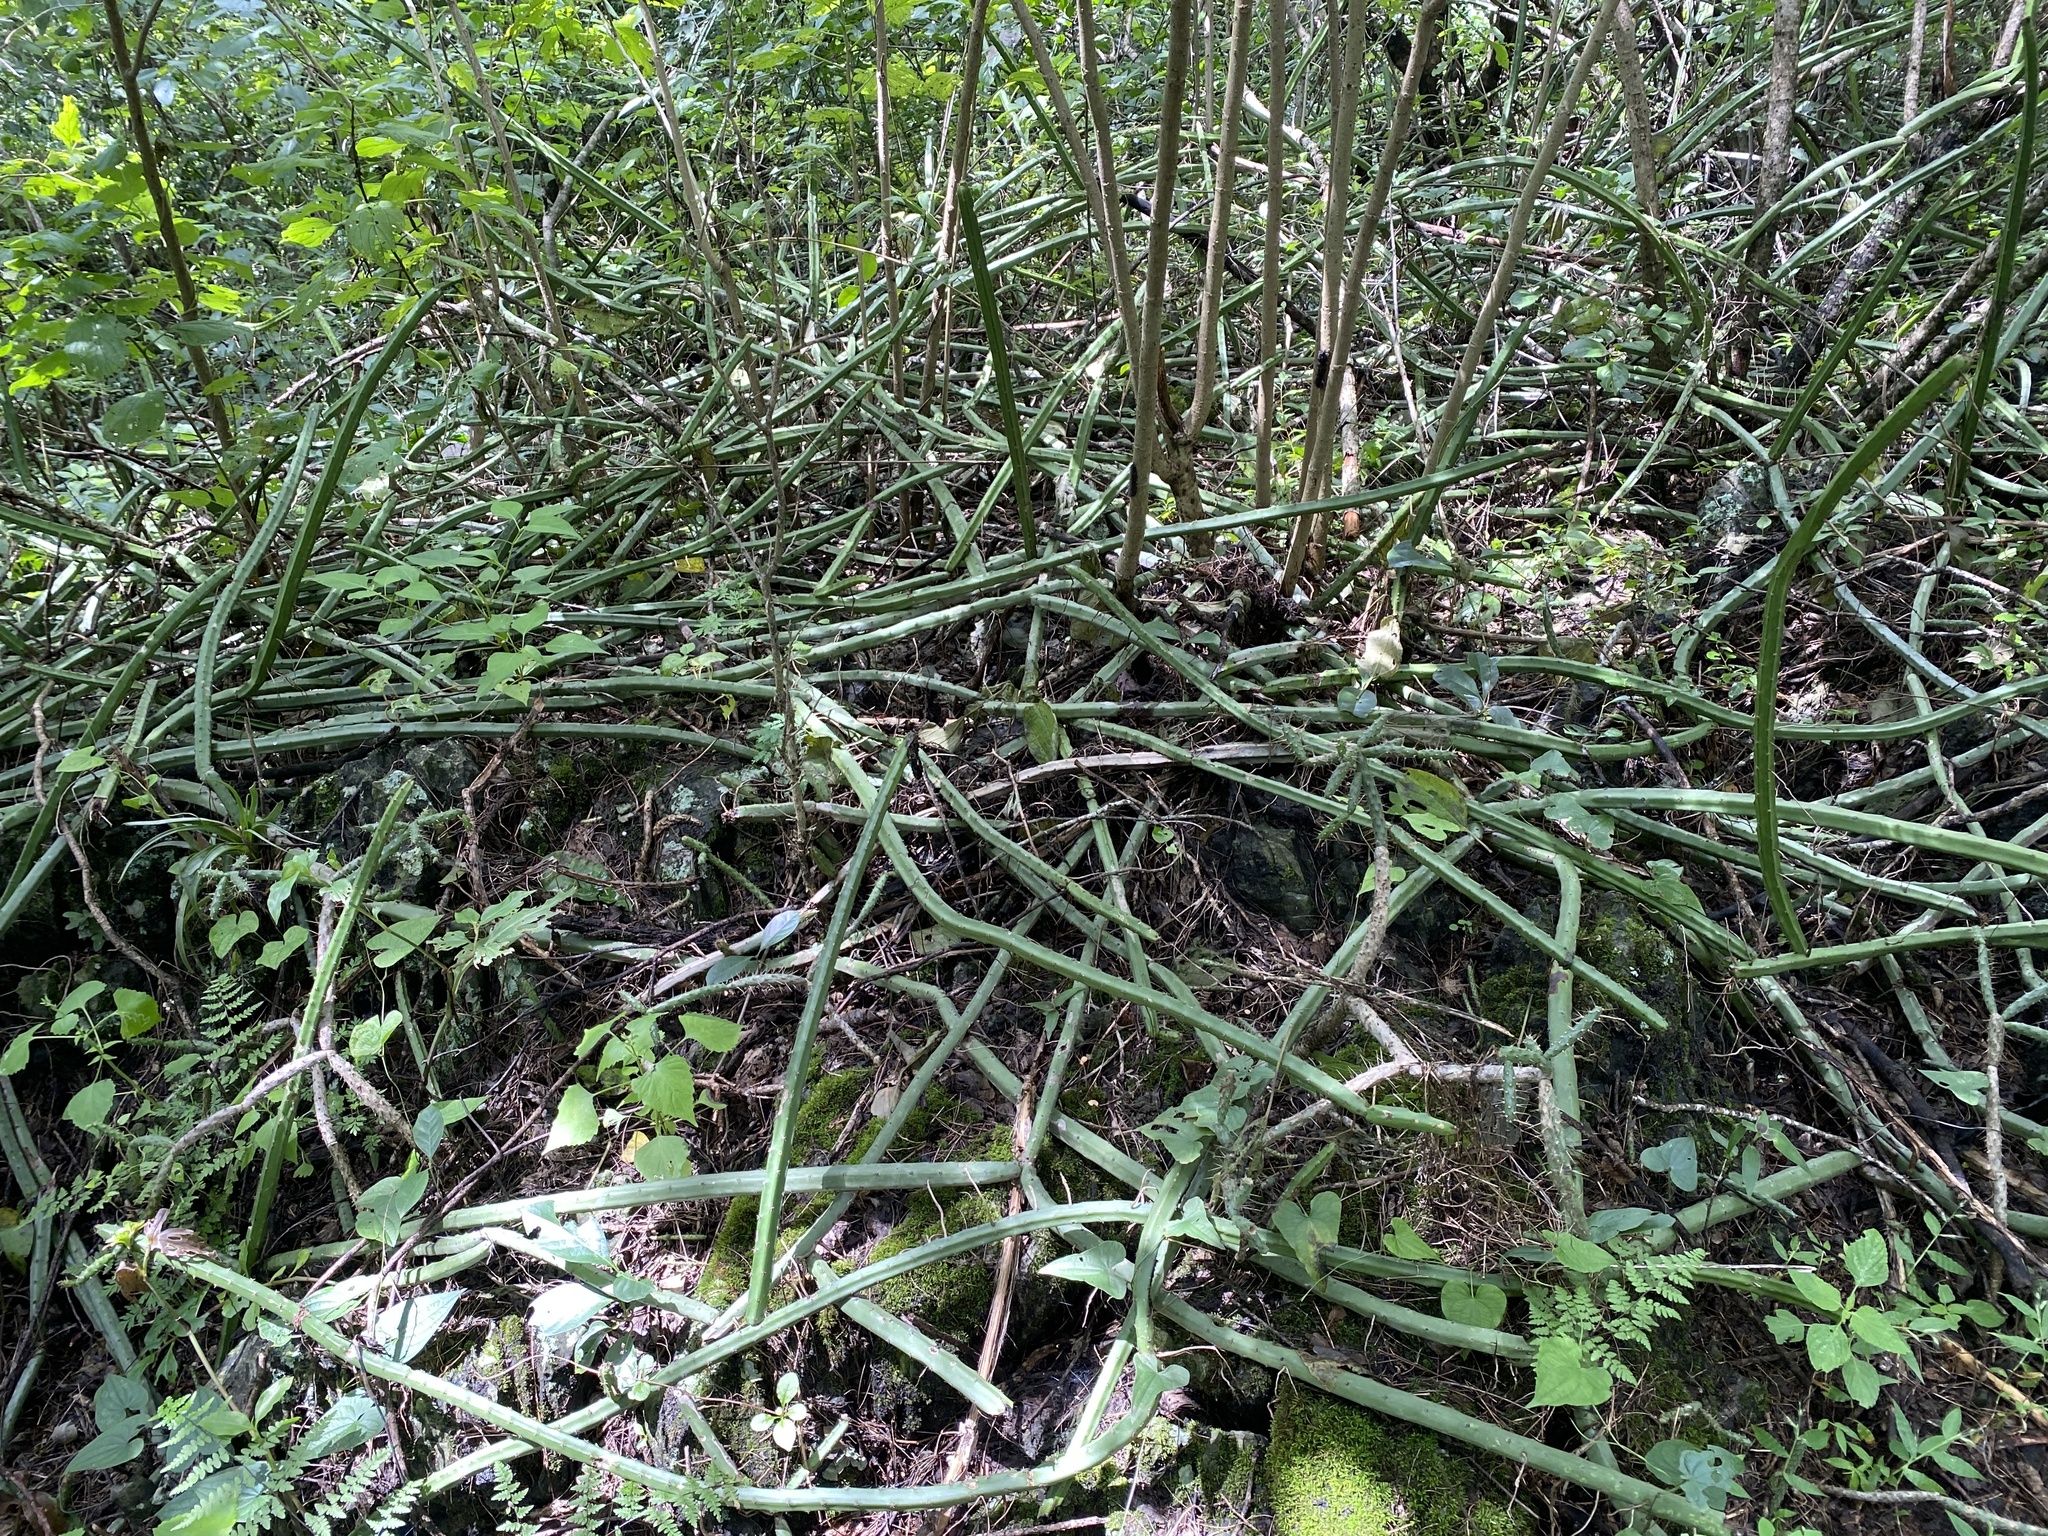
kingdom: Plantae
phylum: Tracheophyta
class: Magnoliopsida
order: Caryophyllales
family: Cactaceae
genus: Selenicereus
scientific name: Selenicereus spinulosus
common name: Nightblooming cereus
